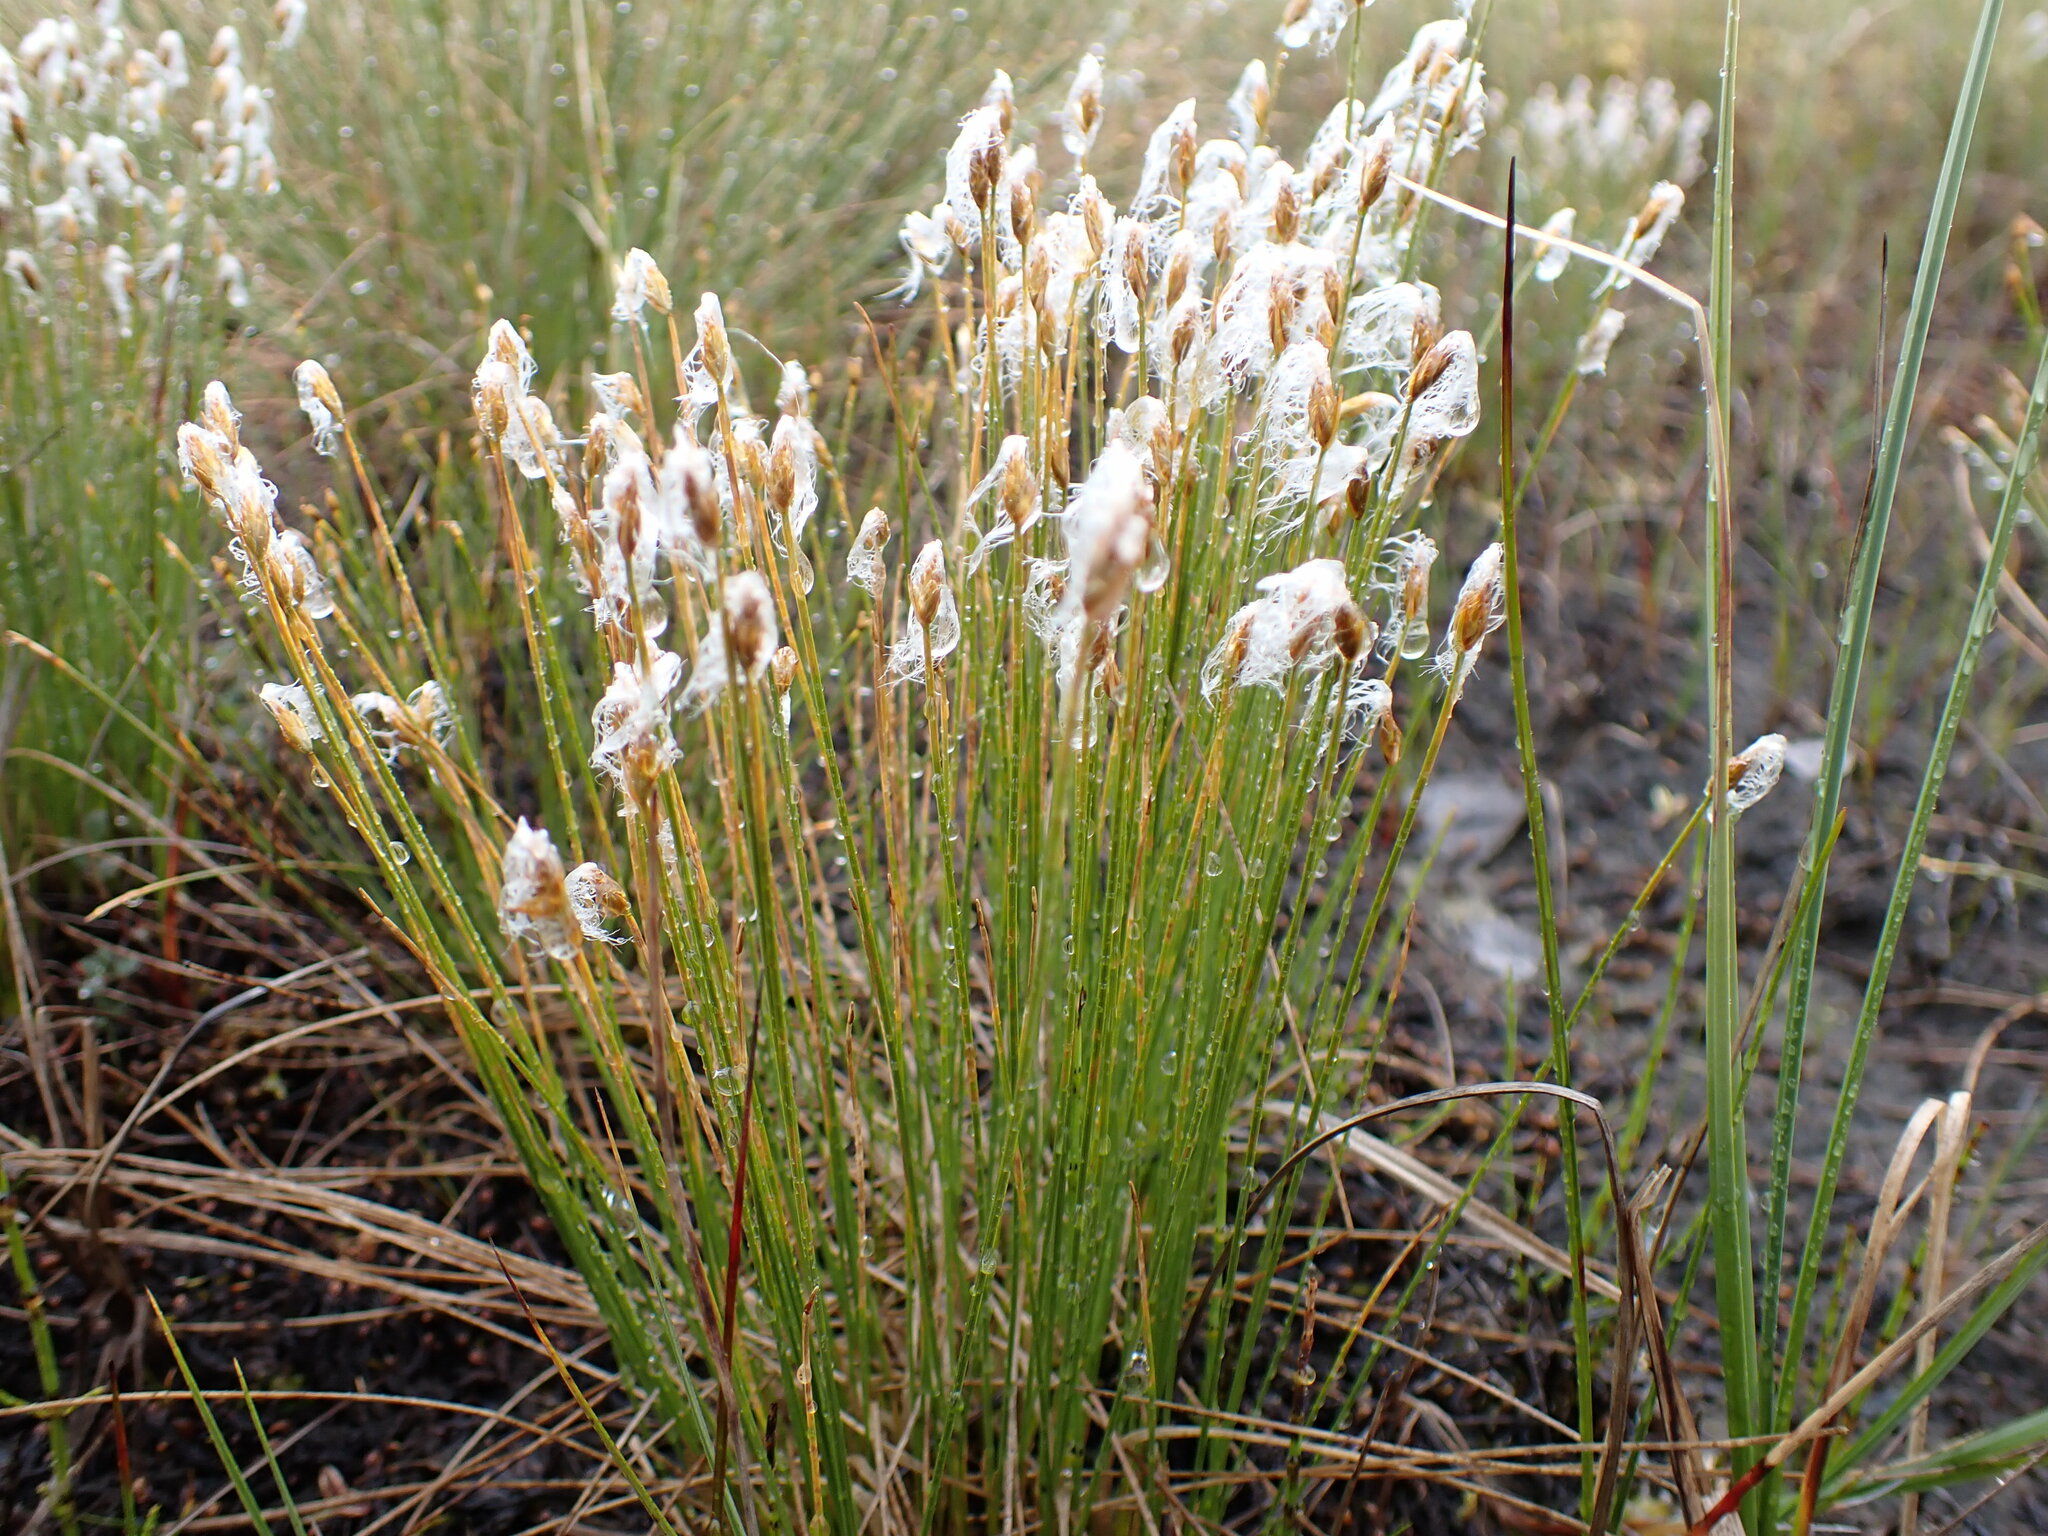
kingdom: Plantae
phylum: Tracheophyta
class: Liliopsida
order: Poales
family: Cyperaceae
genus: Trichophorum
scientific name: Trichophorum alpinum
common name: Alpine bulrush
